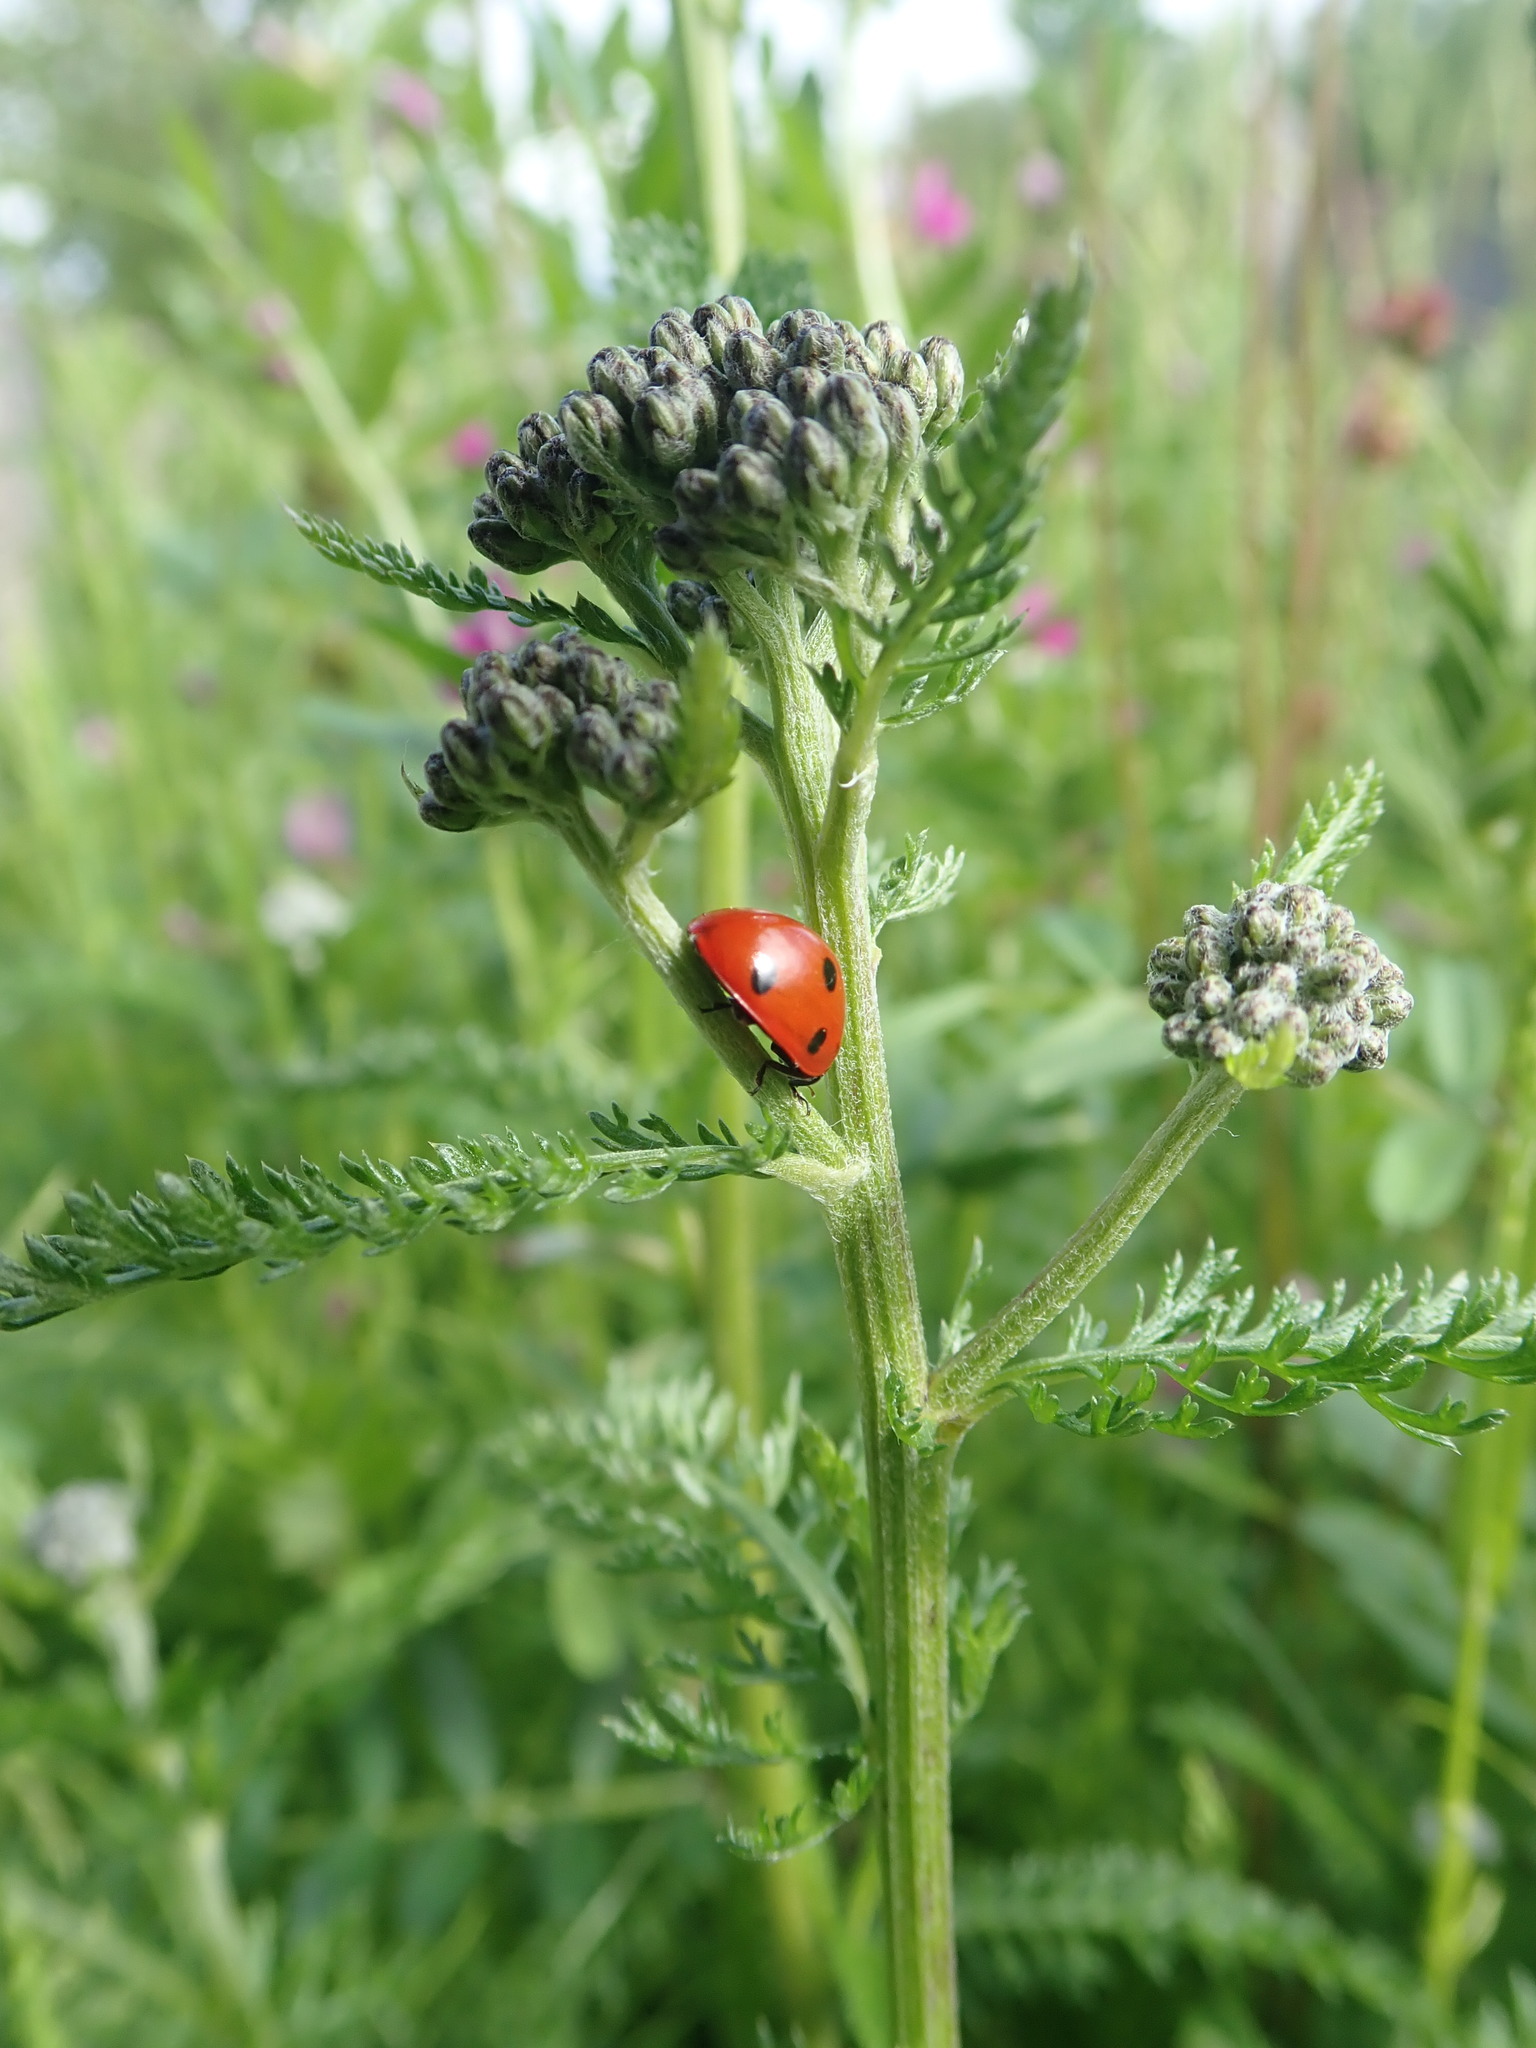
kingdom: Animalia
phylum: Arthropoda
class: Insecta
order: Coleoptera
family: Coccinellidae
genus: Coccinella
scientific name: Coccinella septempunctata
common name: Sevenspotted lady beetle
